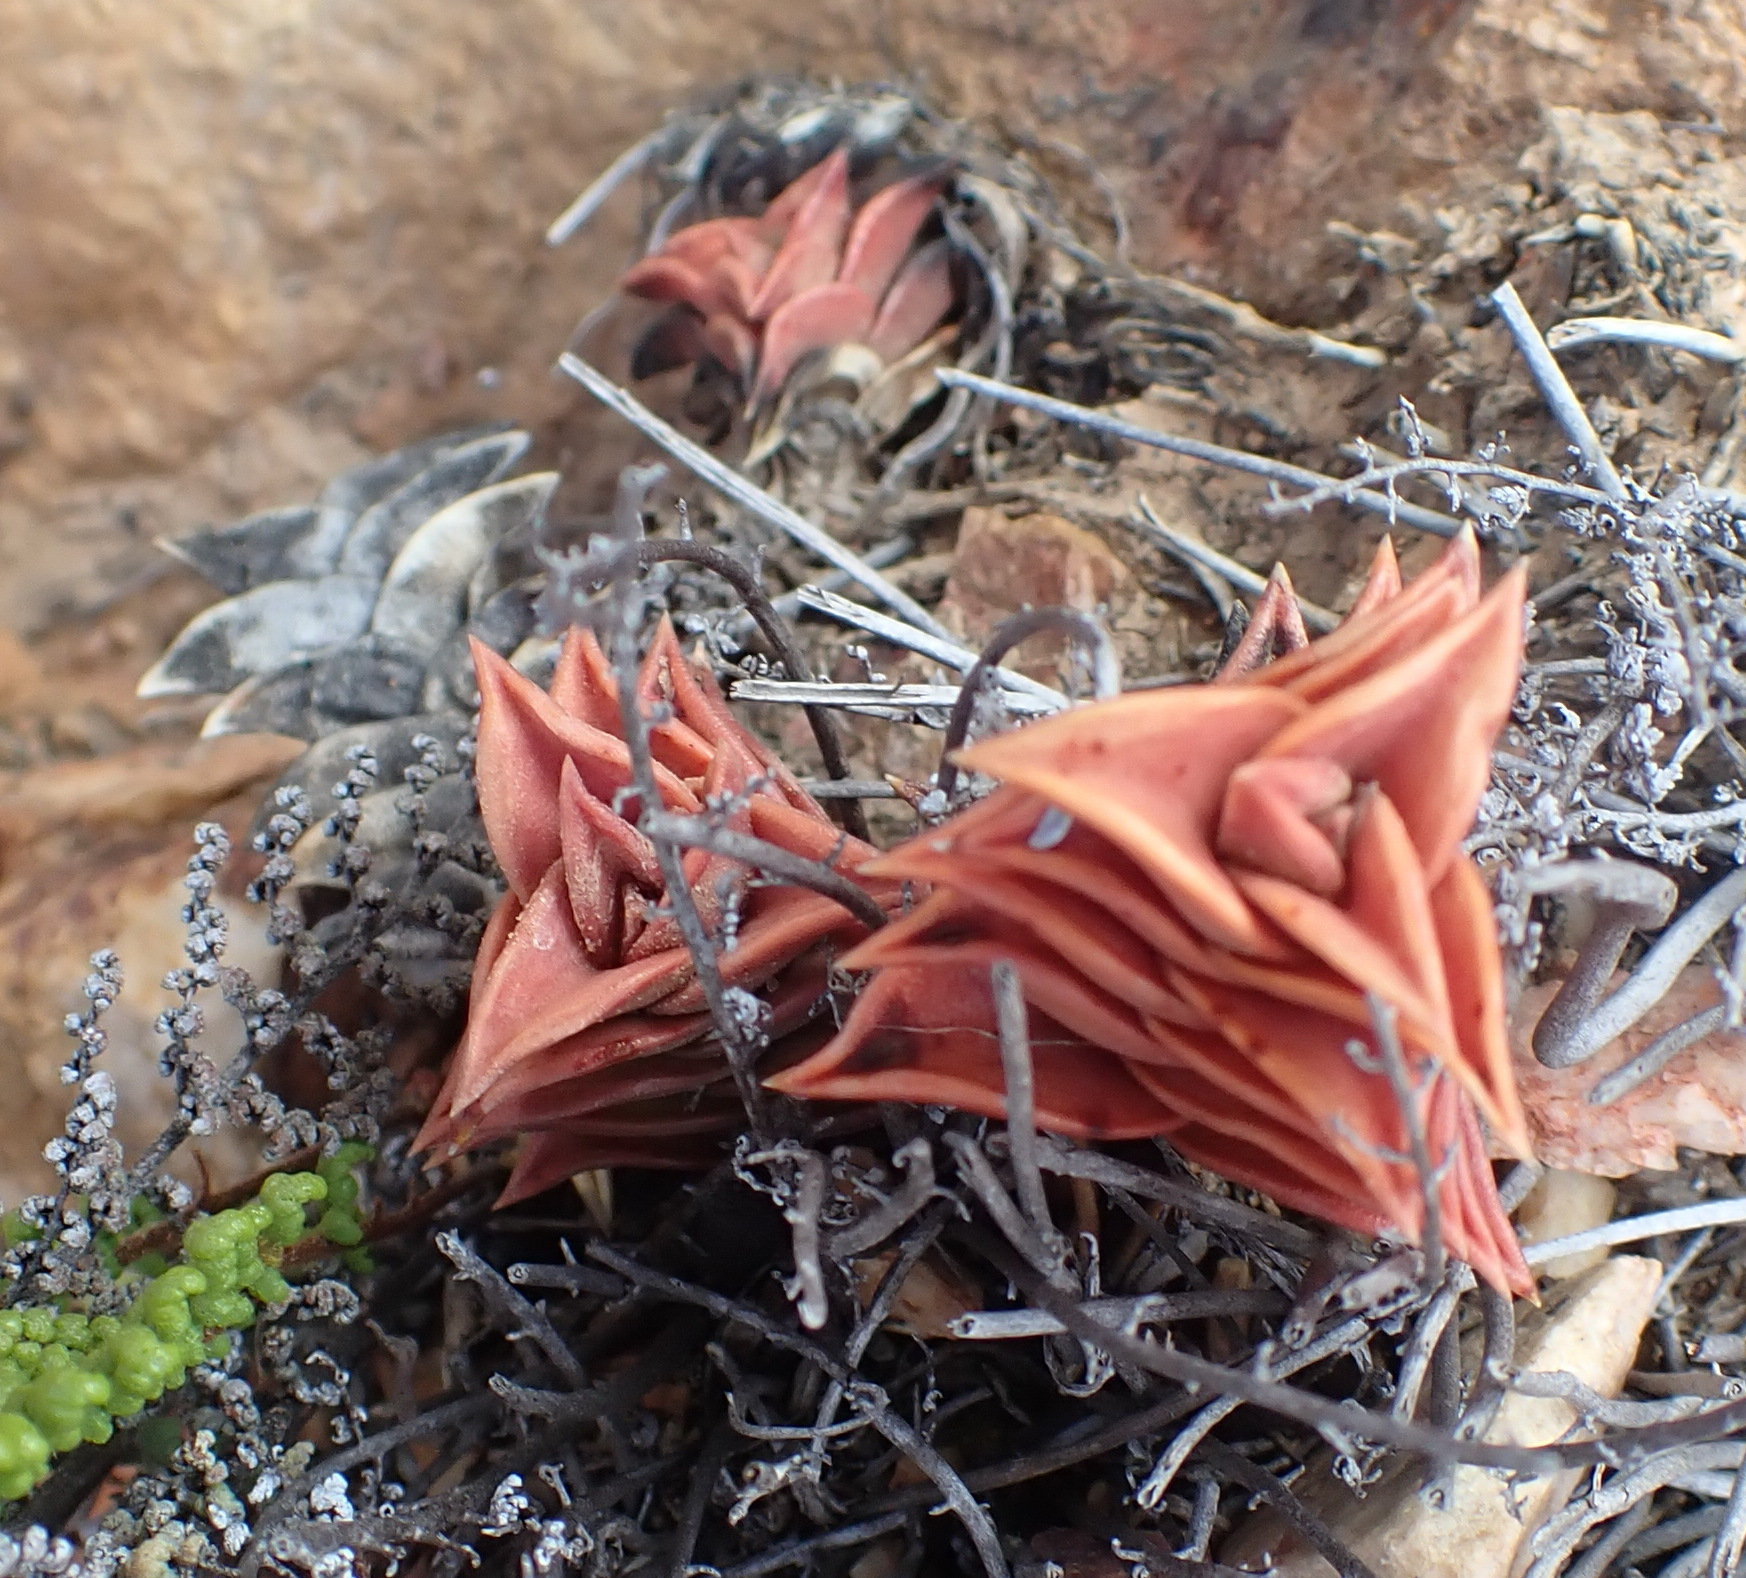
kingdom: Plantae
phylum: Tracheophyta
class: Liliopsida
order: Asparagales
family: Asphodelaceae
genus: Haworthiopsis
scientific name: Haworthiopsis viscosa
